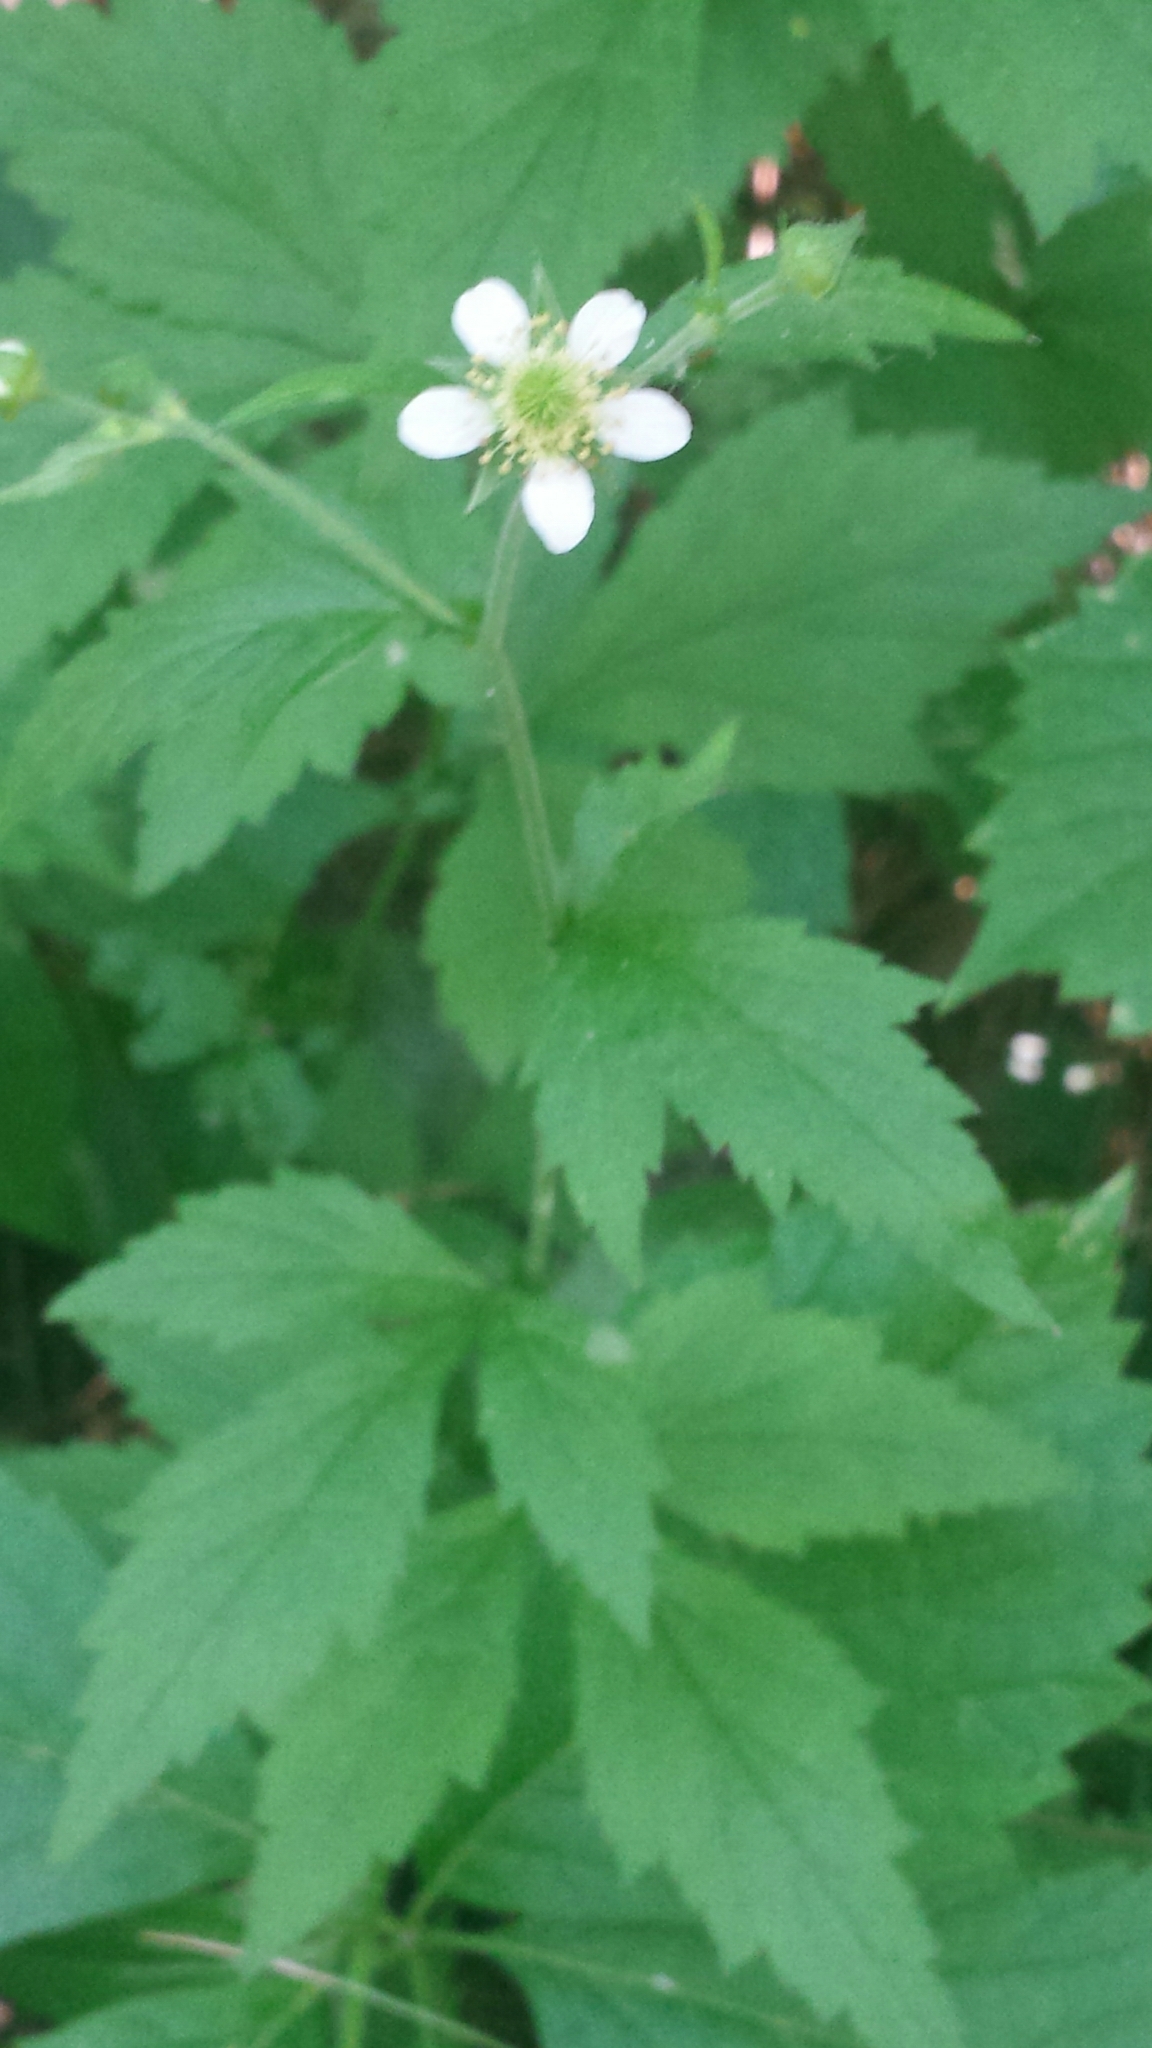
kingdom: Plantae
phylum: Tracheophyta
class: Magnoliopsida
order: Rosales
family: Rosaceae
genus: Geum
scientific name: Geum canadense
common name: White avens
